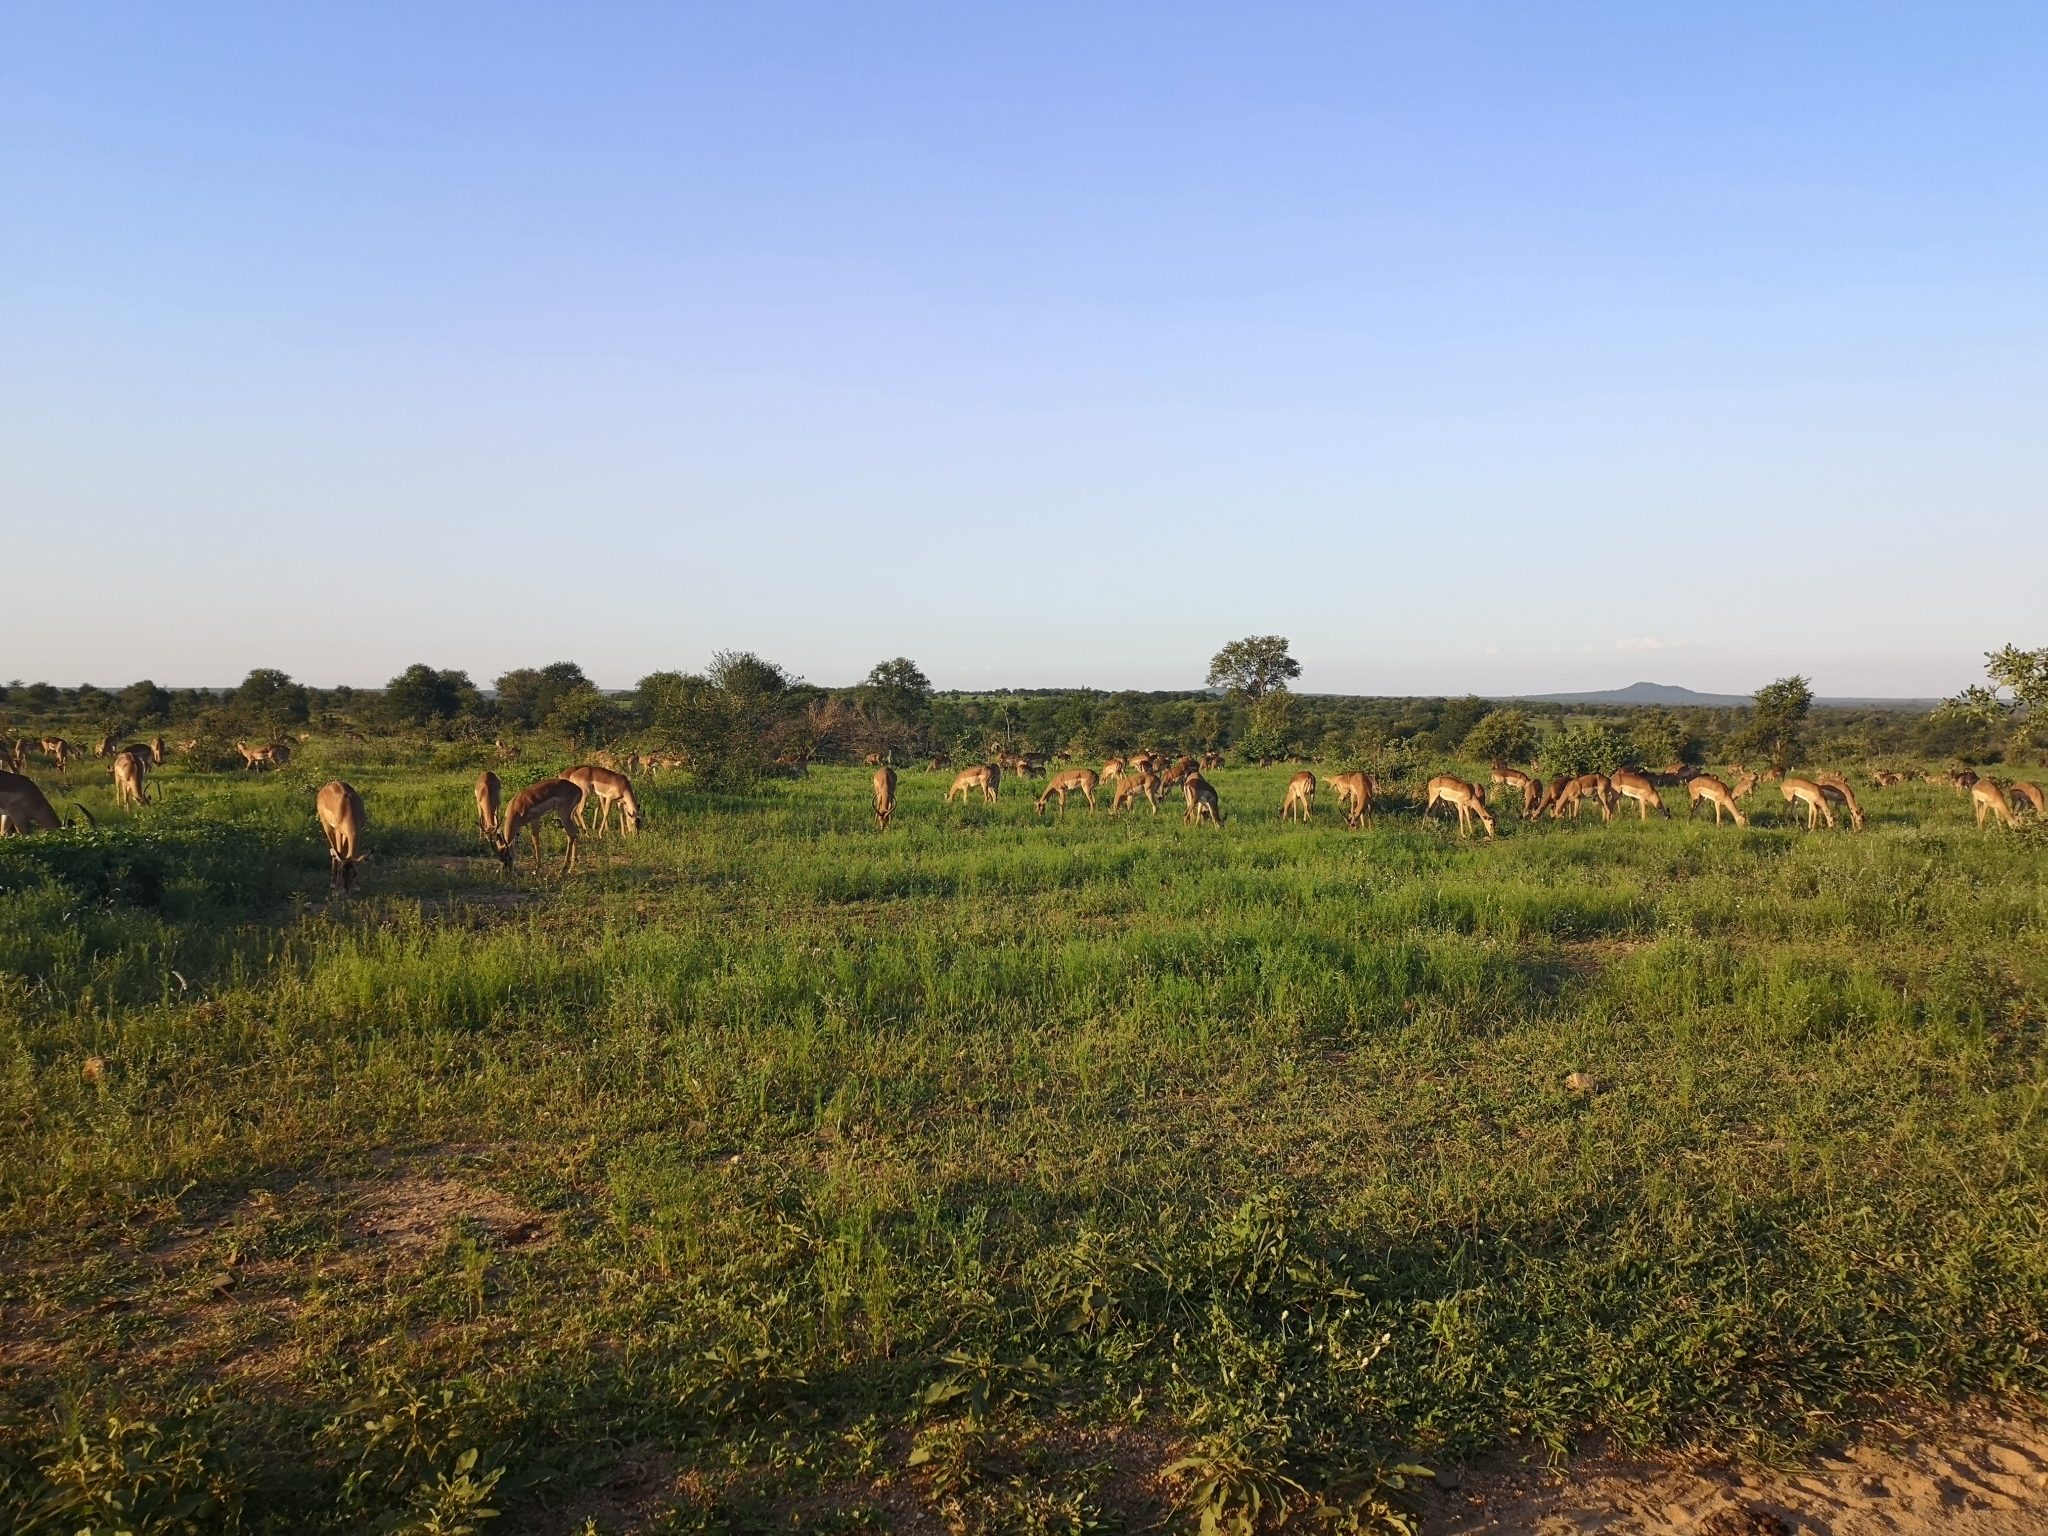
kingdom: Animalia
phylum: Chordata
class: Mammalia
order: Artiodactyla
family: Bovidae
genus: Aepyceros
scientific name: Aepyceros melampus
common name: Impala
